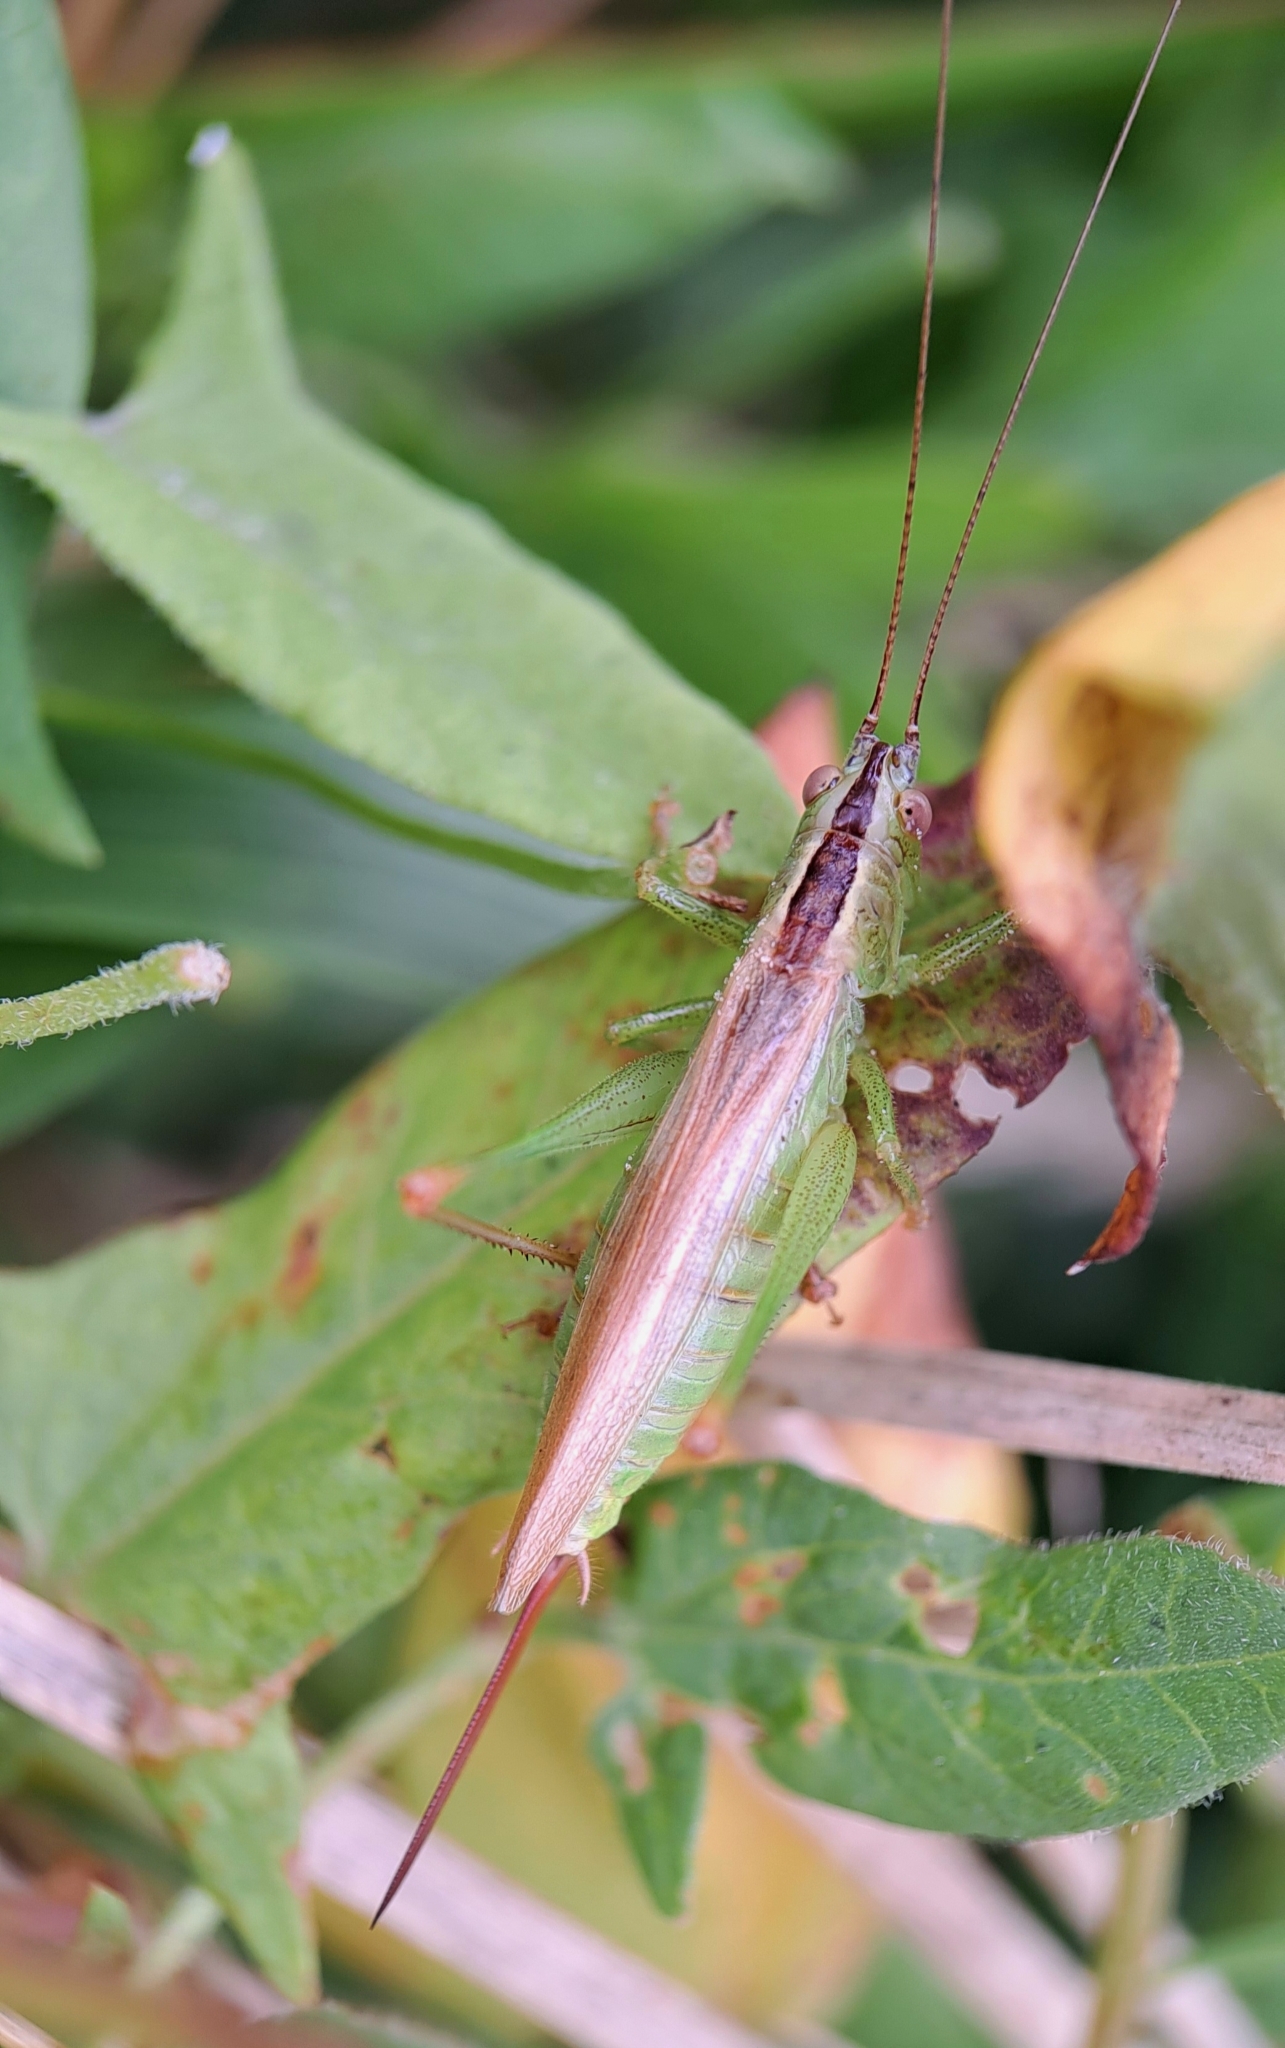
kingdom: Animalia
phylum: Arthropoda
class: Insecta
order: Orthoptera
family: Tettigoniidae
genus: Conocephalus
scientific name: Conocephalus fuscus
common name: Long-winged conehead
